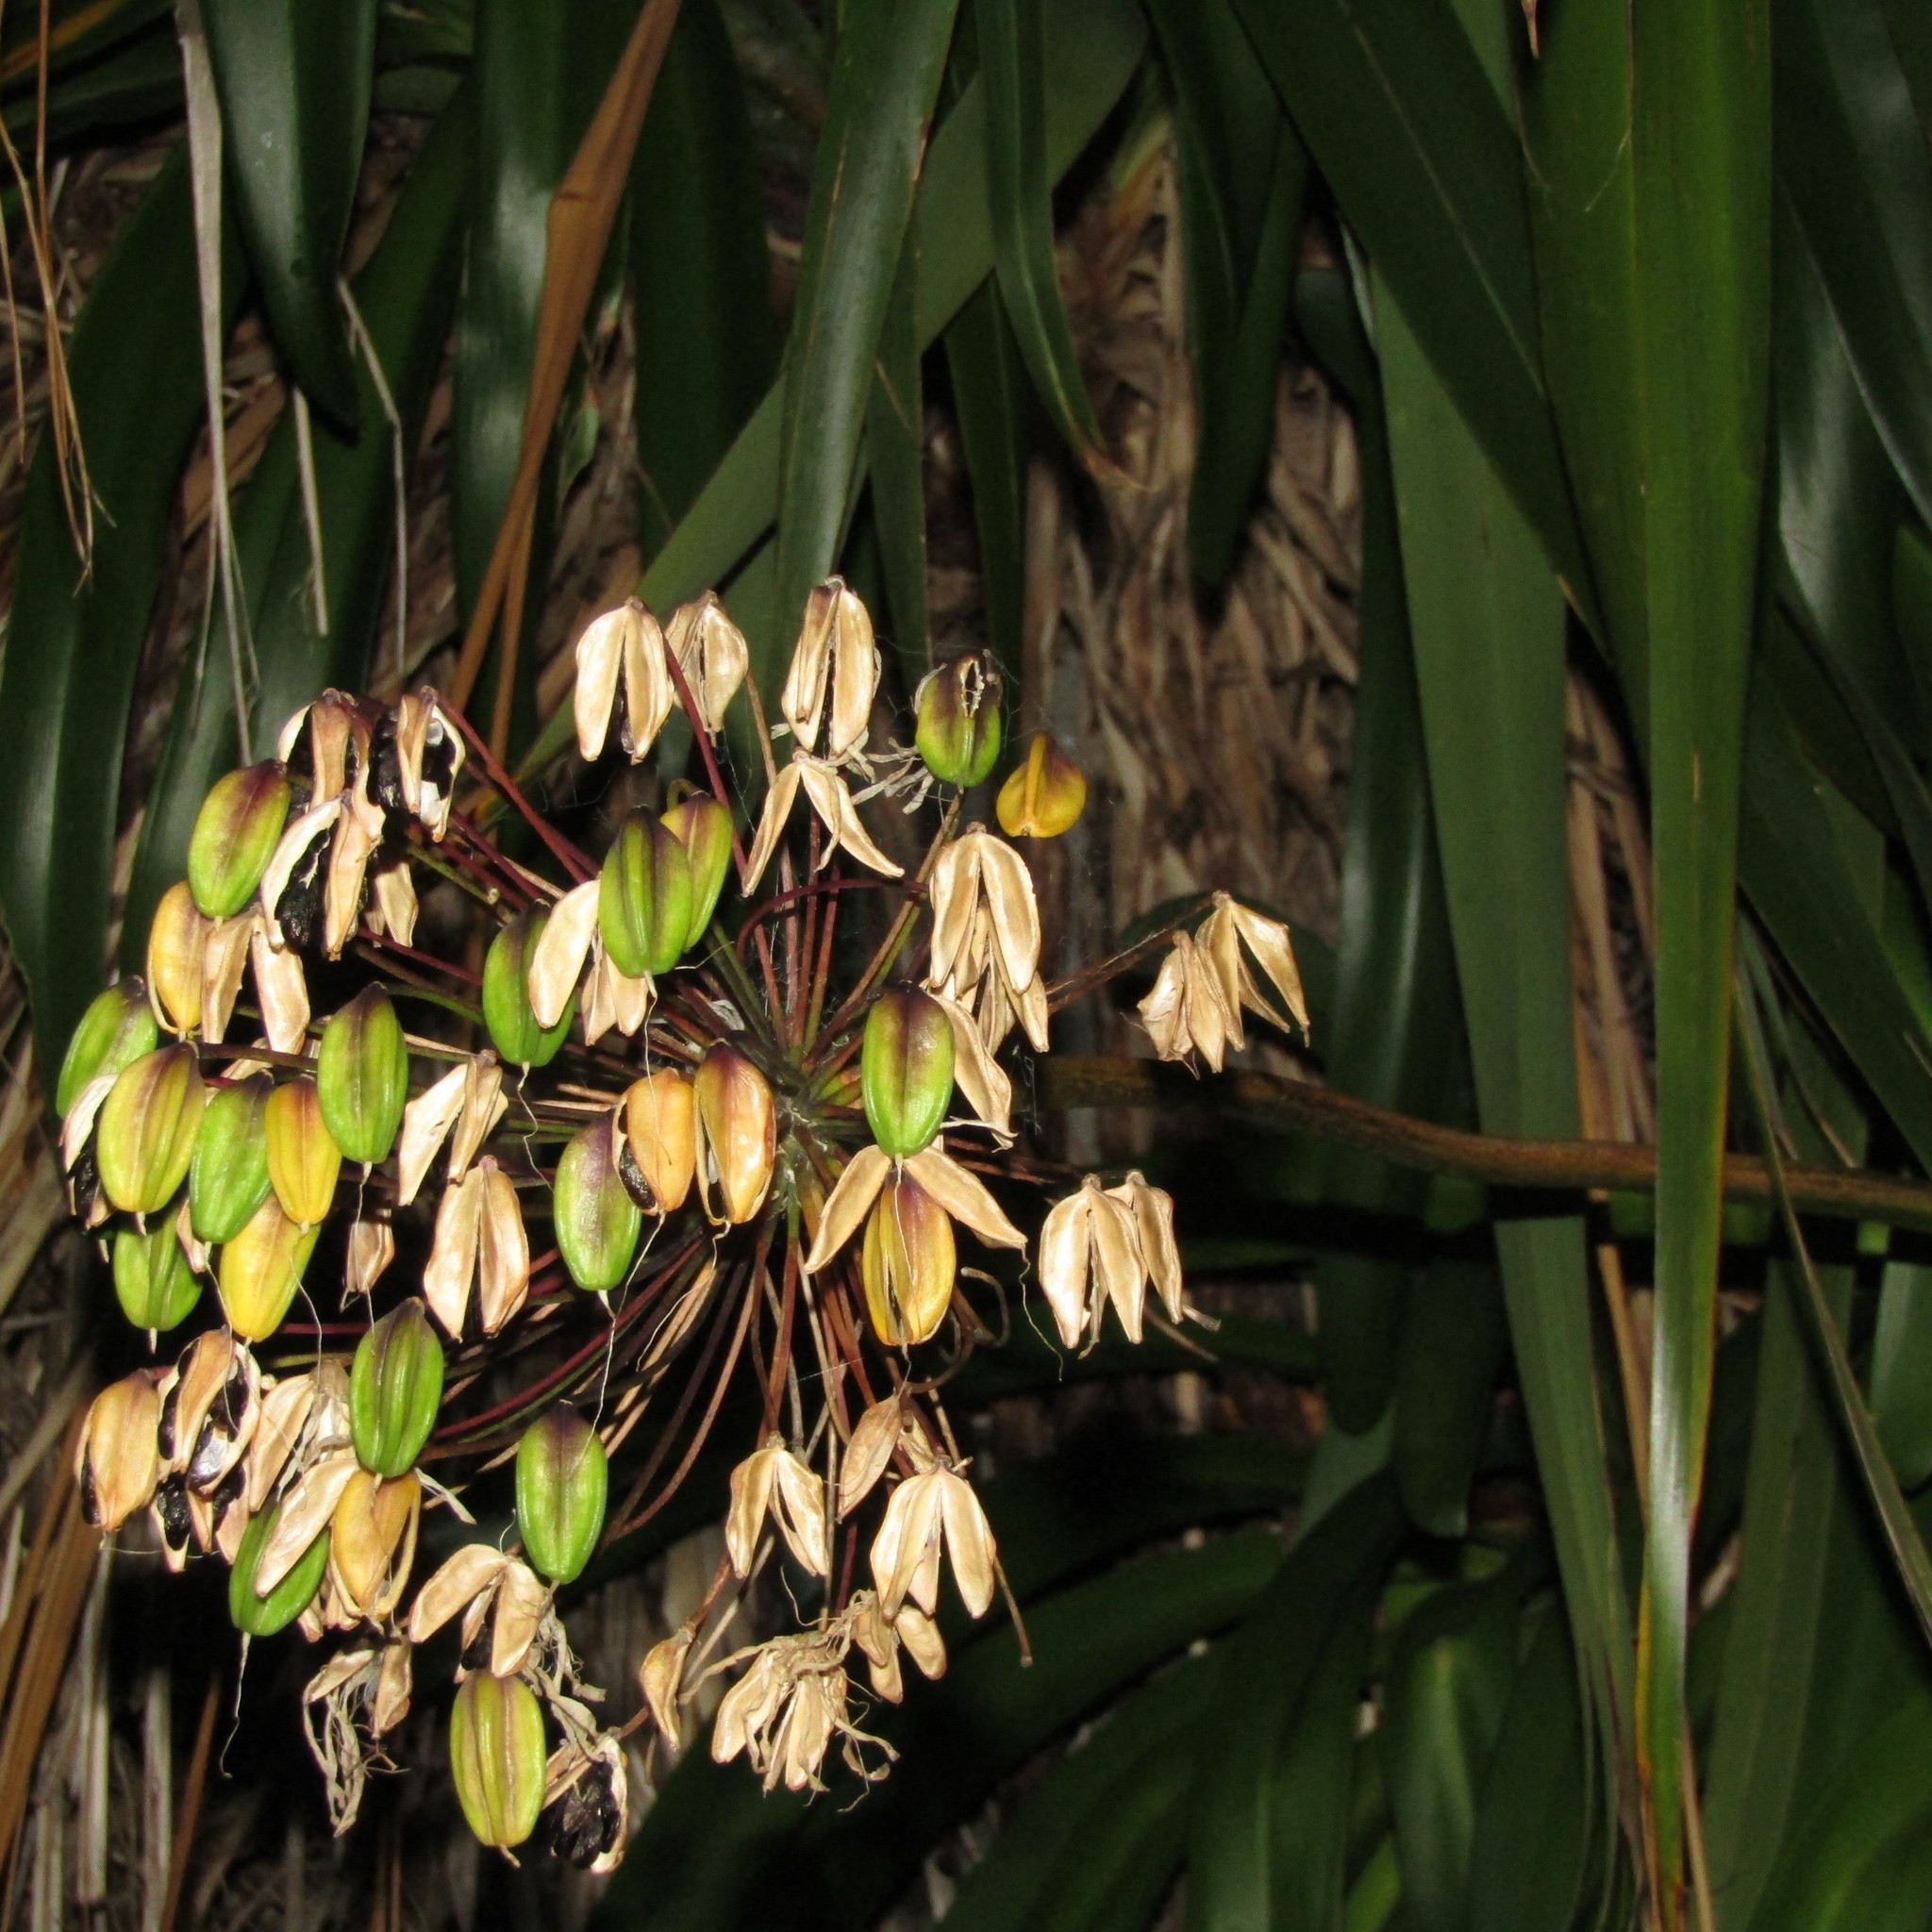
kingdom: Plantae
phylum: Tracheophyta
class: Liliopsida
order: Asparagales
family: Amaryllidaceae
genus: Agapanthus
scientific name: Agapanthus praecox
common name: African-lily
